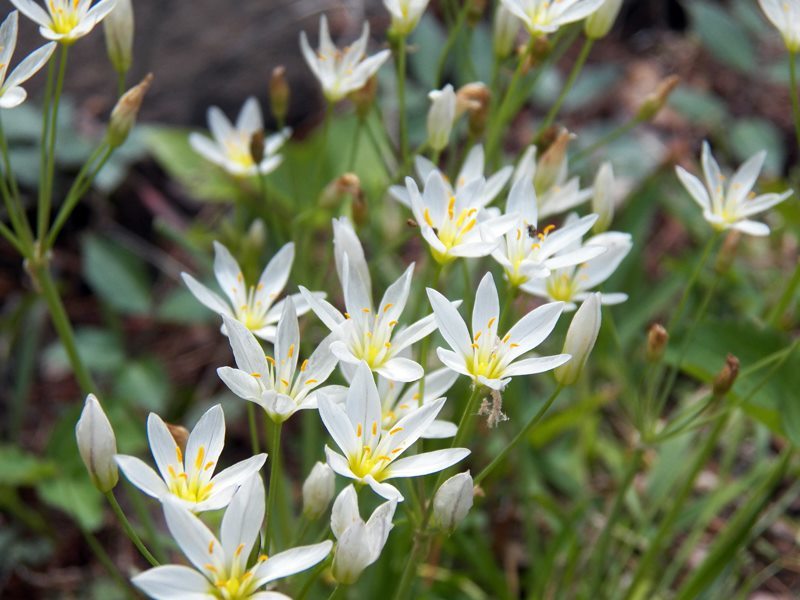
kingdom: Plantae
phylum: Tracheophyta
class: Liliopsida
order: Asparagales
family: Amaryllidaceae
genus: Nothoscordum
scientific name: Nothoscordum bivalve
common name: Crow-poison
